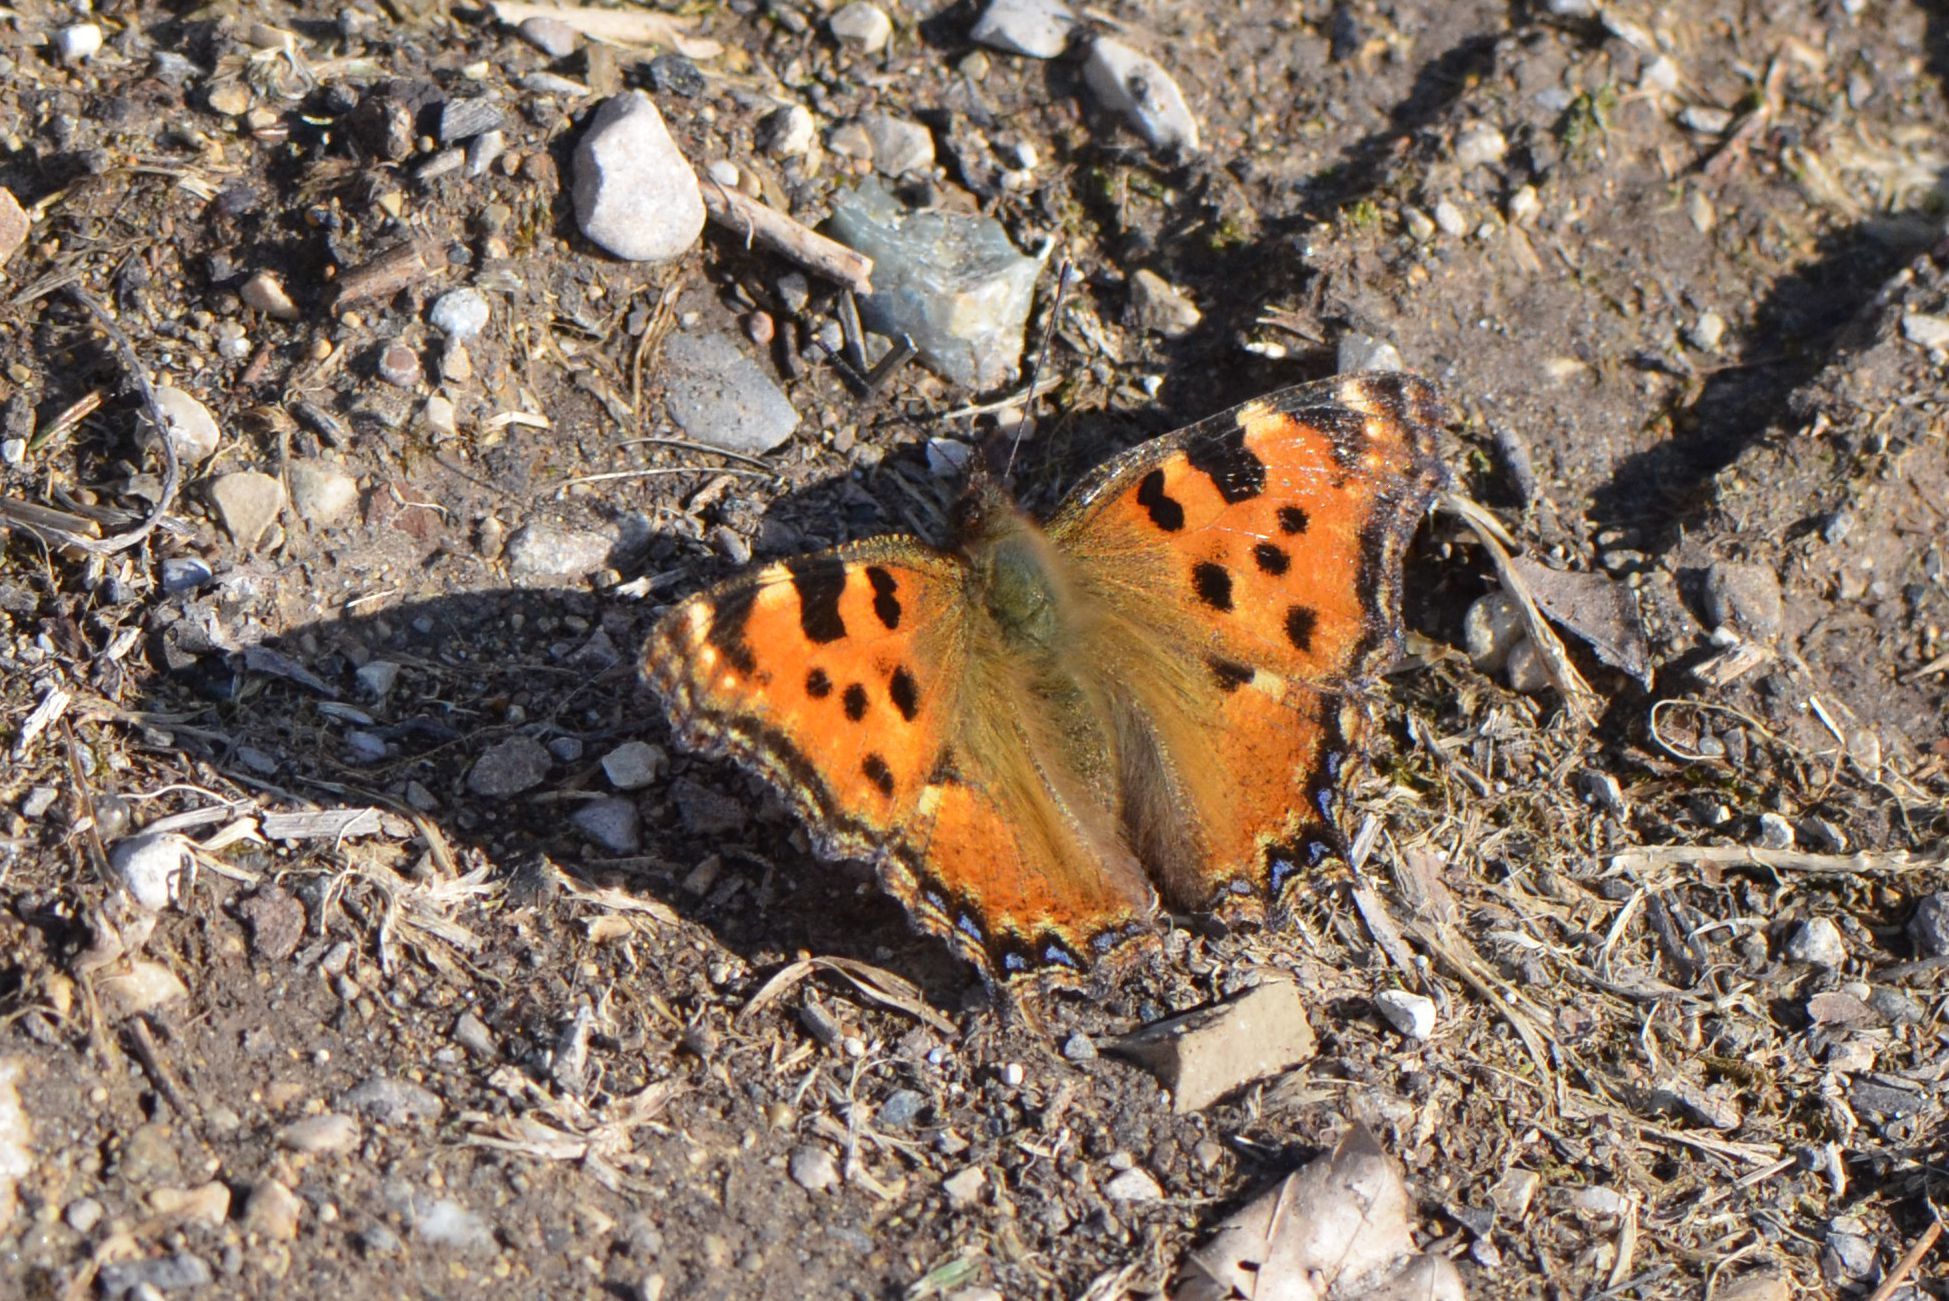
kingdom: Animalia
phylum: Arthropoda
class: Insecta
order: Lepidoptera
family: Nymphalidae
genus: Nymphalis
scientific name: Nymphalis polychloros
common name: Large tortoiseshell
